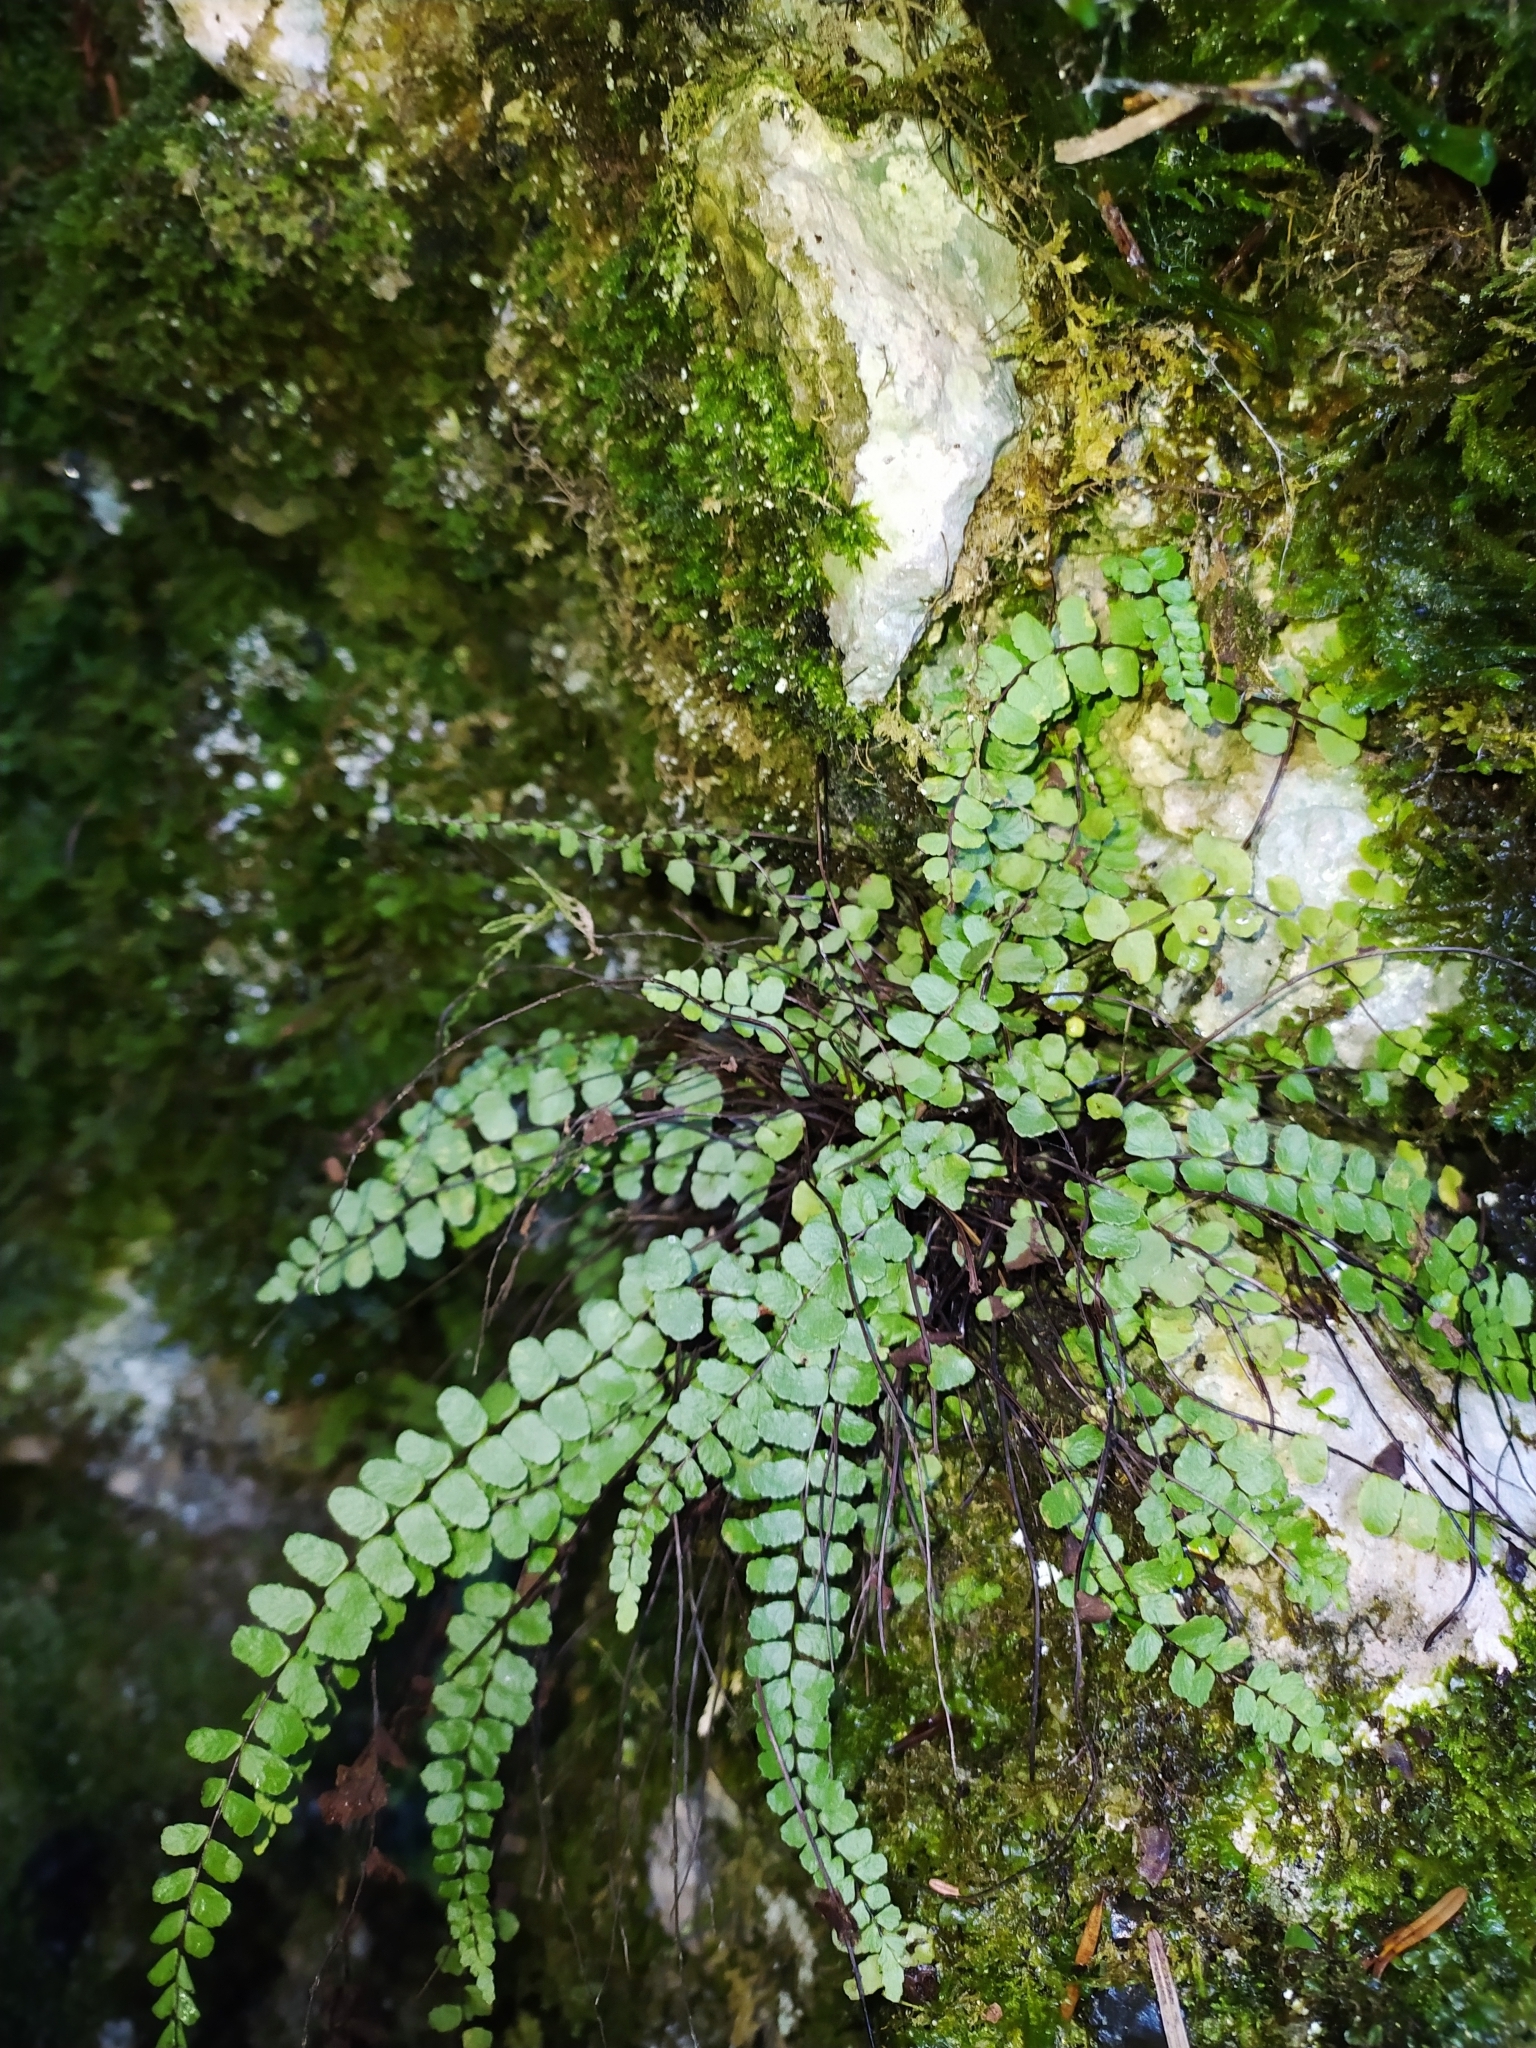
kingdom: Plantae
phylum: Tracheophyta
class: Polypodiopsida
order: Polypodiales
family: Aspleniaceae
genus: Asplenium
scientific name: Asplenium trichomanes
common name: Maidenhair spleenwort
